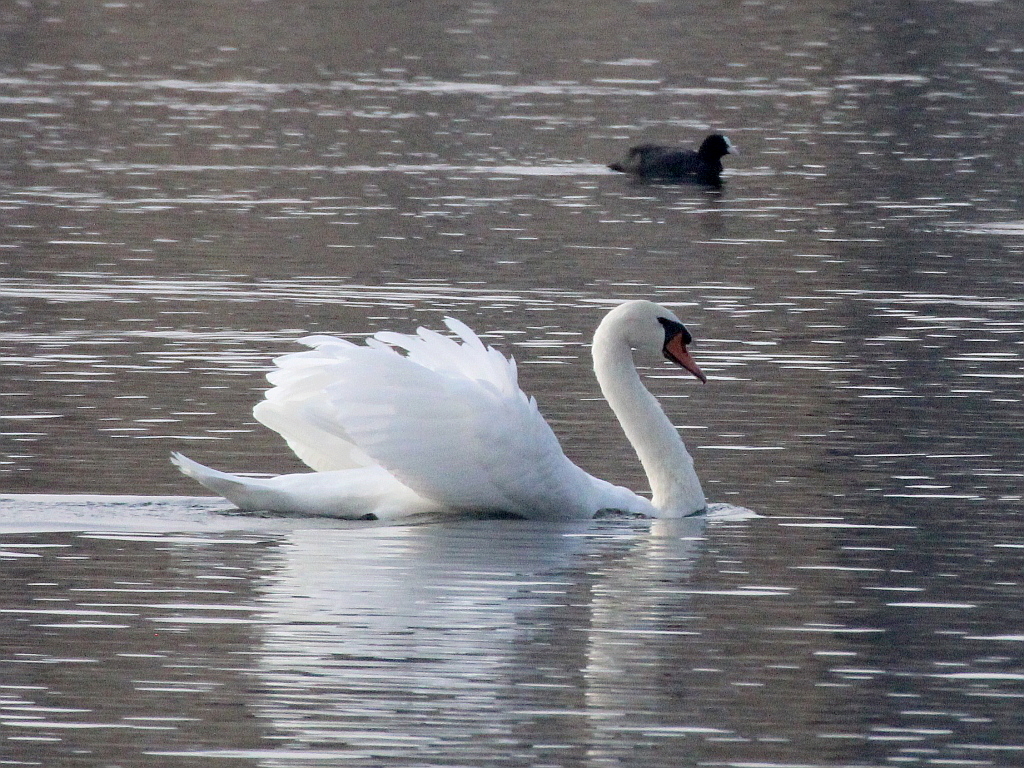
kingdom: Animalia
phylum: Chordata
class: Aves
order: Anseriformes
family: Anatidae
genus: Cygnus
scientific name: Cygnus olor
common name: Mute swan
